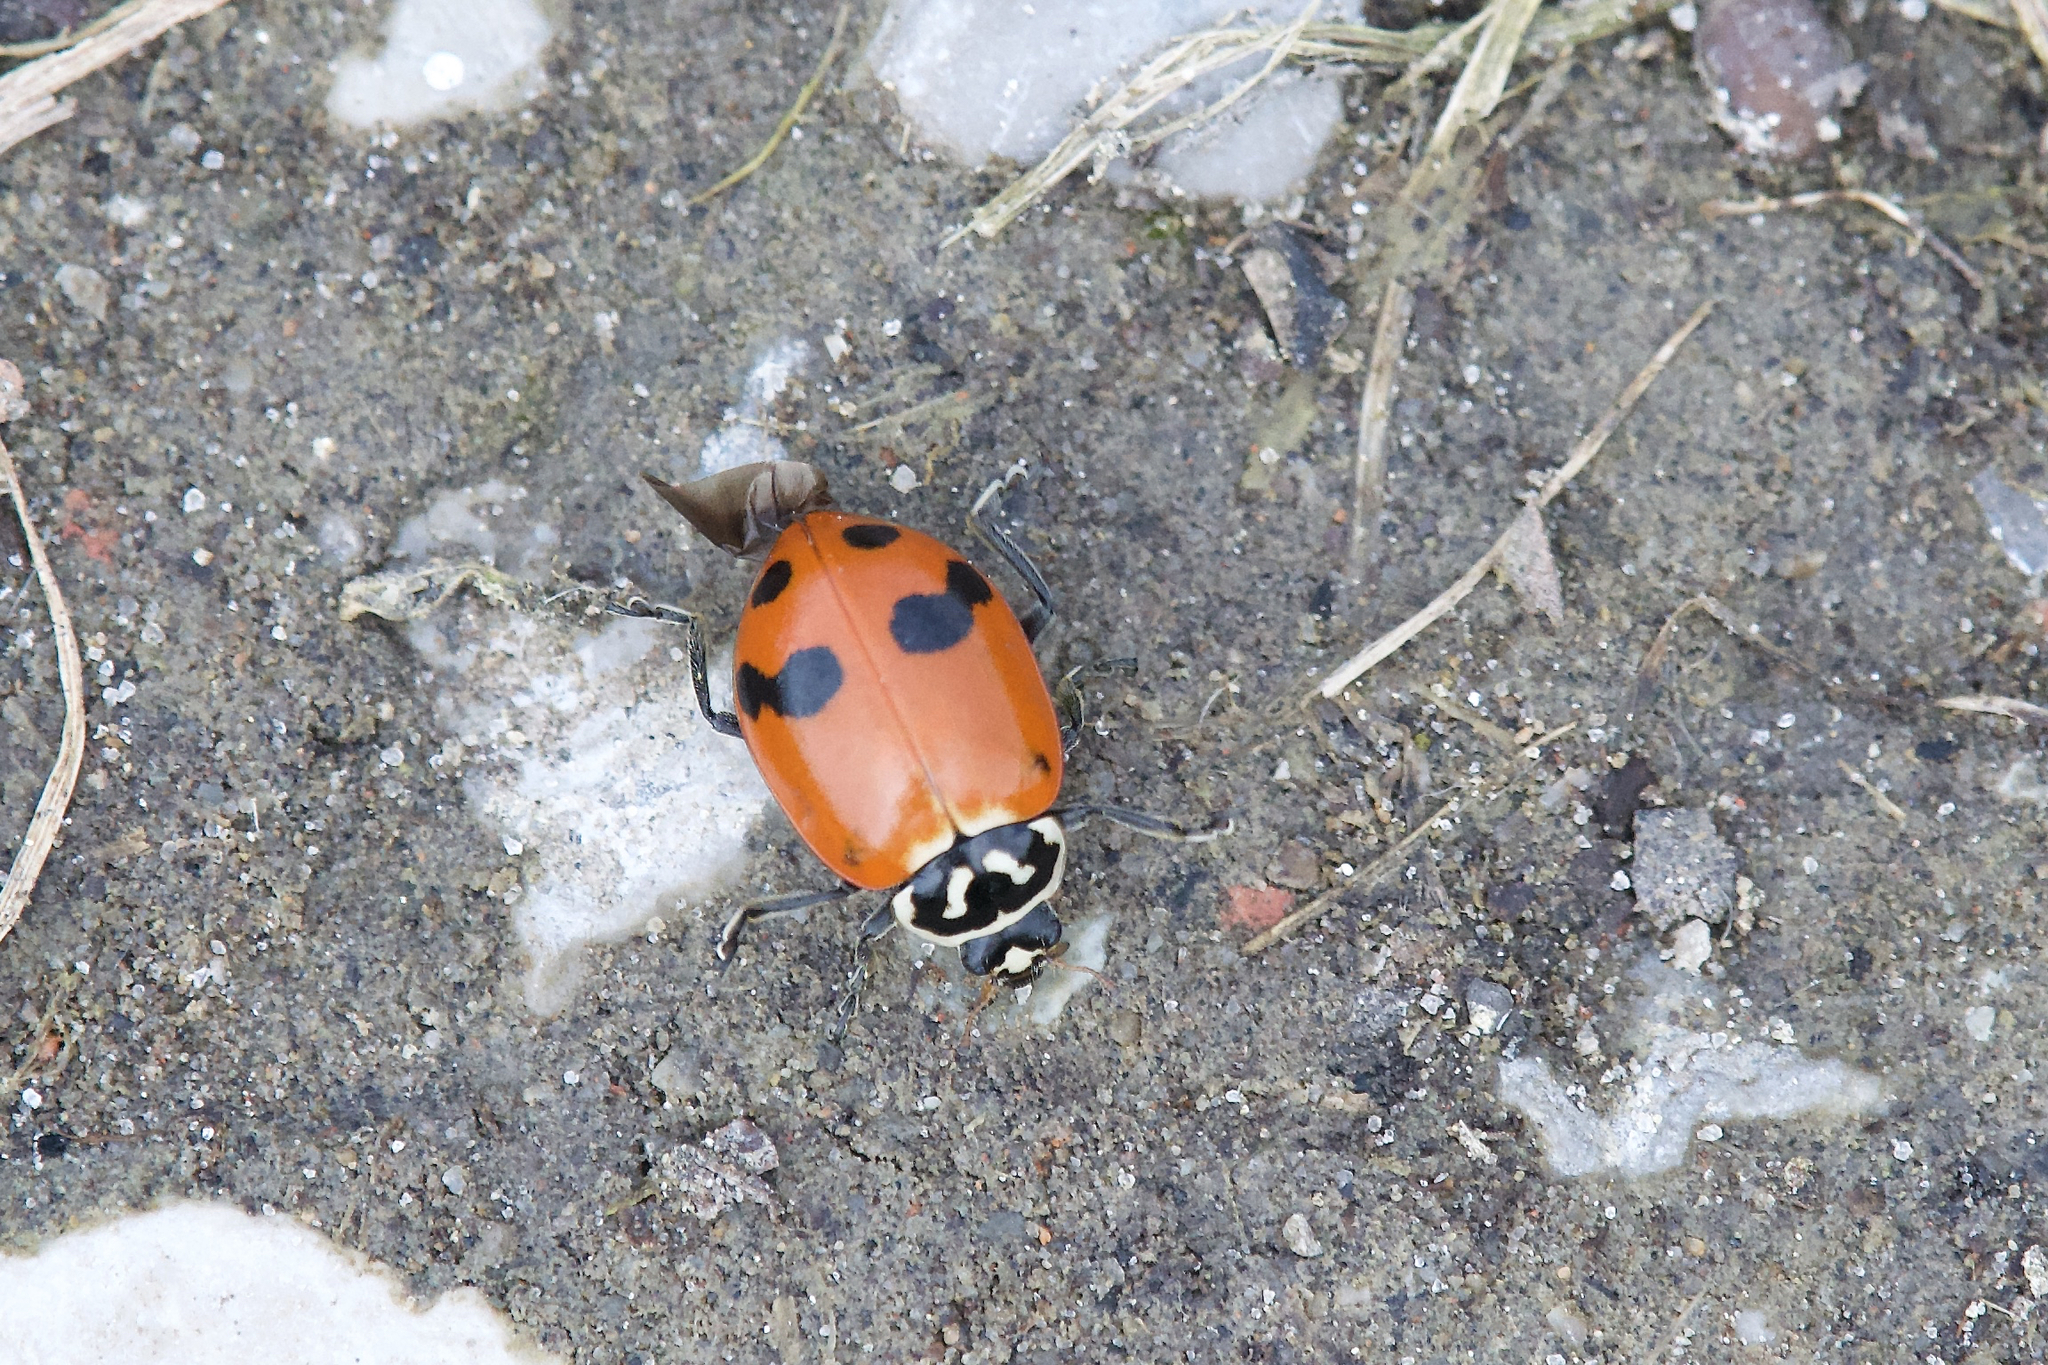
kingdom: Animalia
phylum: Arthropoda
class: Insecta
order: Coleoptera
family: Coccinellidae
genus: Hippodamia
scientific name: Hippodamia glacialis
